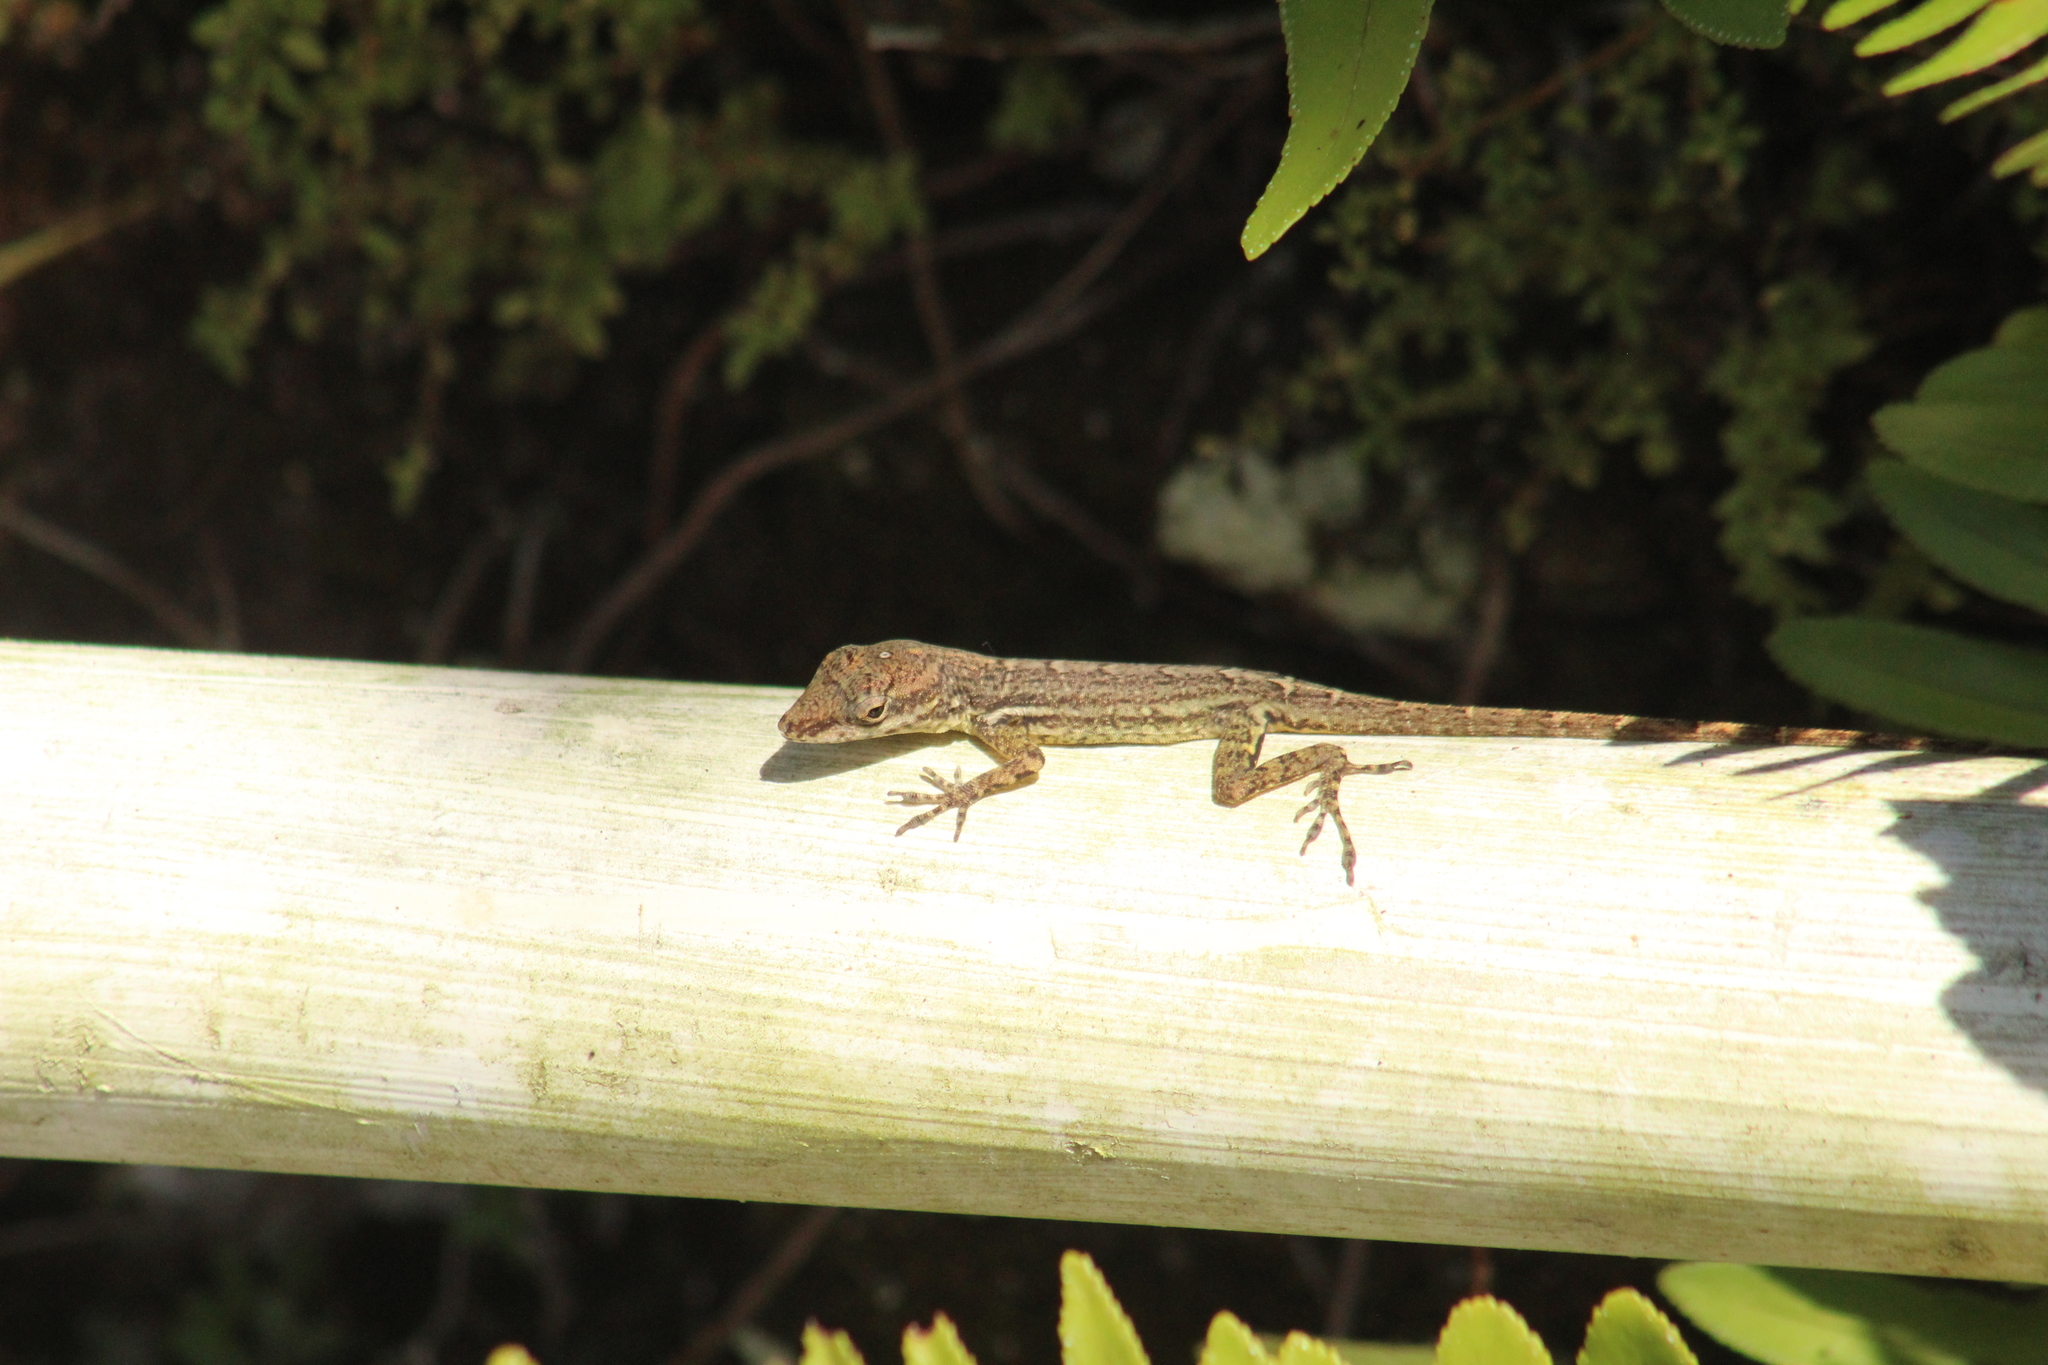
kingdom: Animalia
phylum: Chordata
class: Squamata
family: Dactyloidae
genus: Anolis
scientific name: Anolis sabanus
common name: Saba anole
